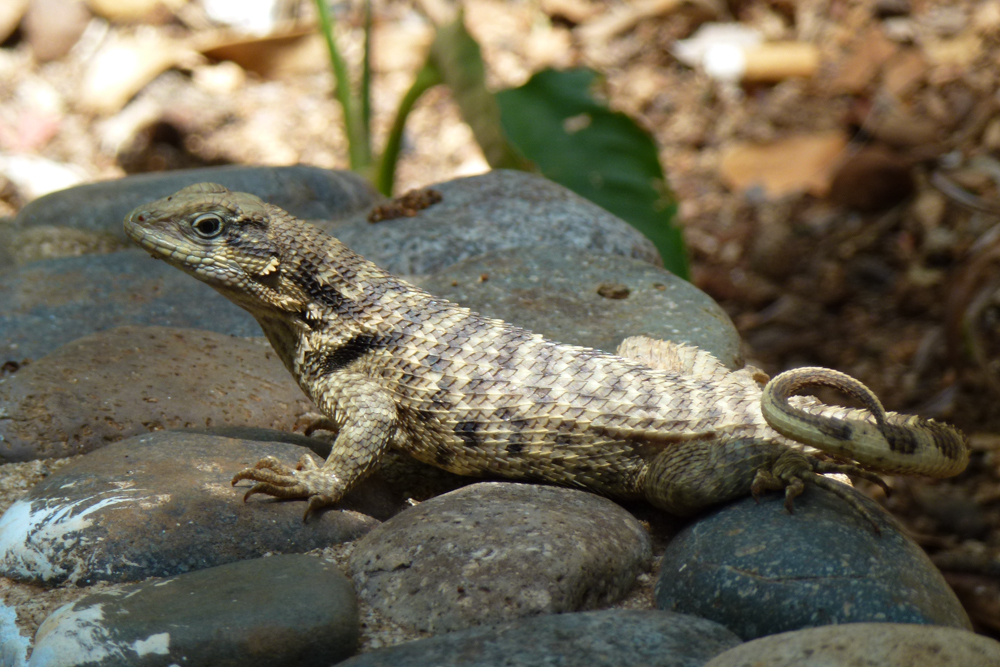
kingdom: Animalia
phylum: Chordata
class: Squamata
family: Leiocephalidae
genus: Leiocephalus
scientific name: Leiocephalus carinatus
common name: Northern curly-tailed lizard
